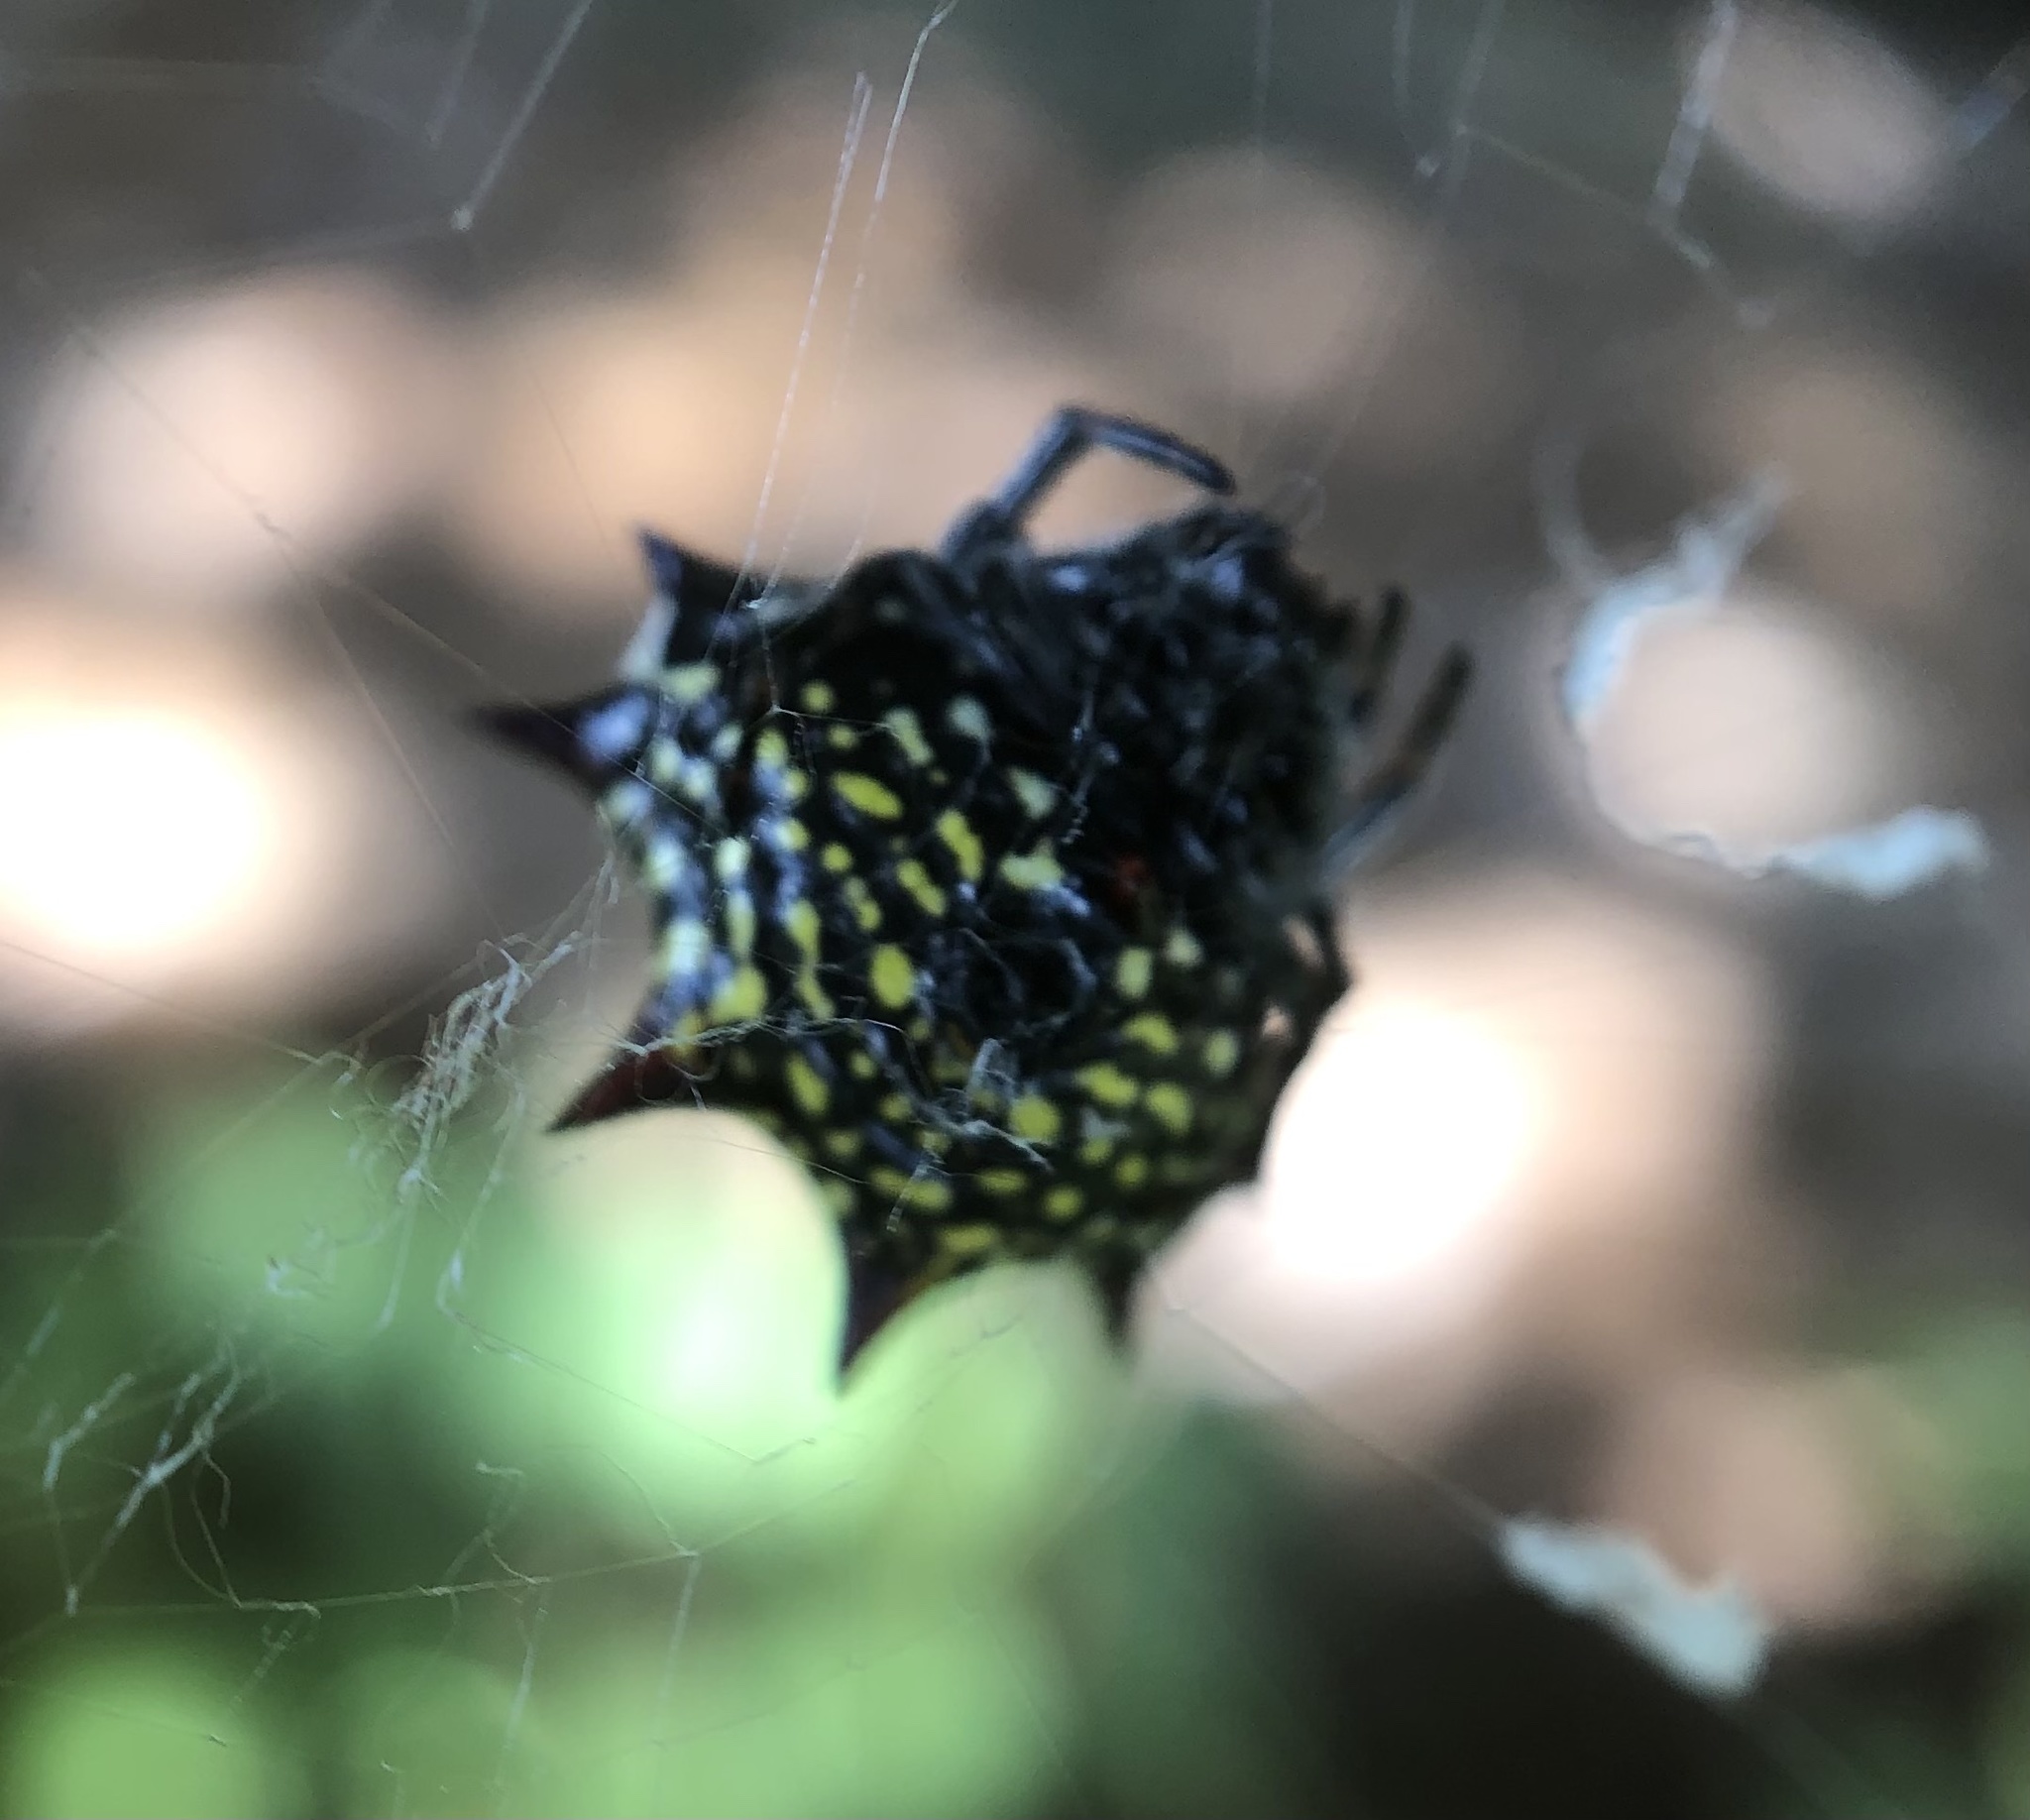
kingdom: Animalia
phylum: Arthropoda
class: Arachnida
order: Araneae
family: Araneidae
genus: Gasteracantha
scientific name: Gasteracantha cancriformis
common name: Orb weavers
